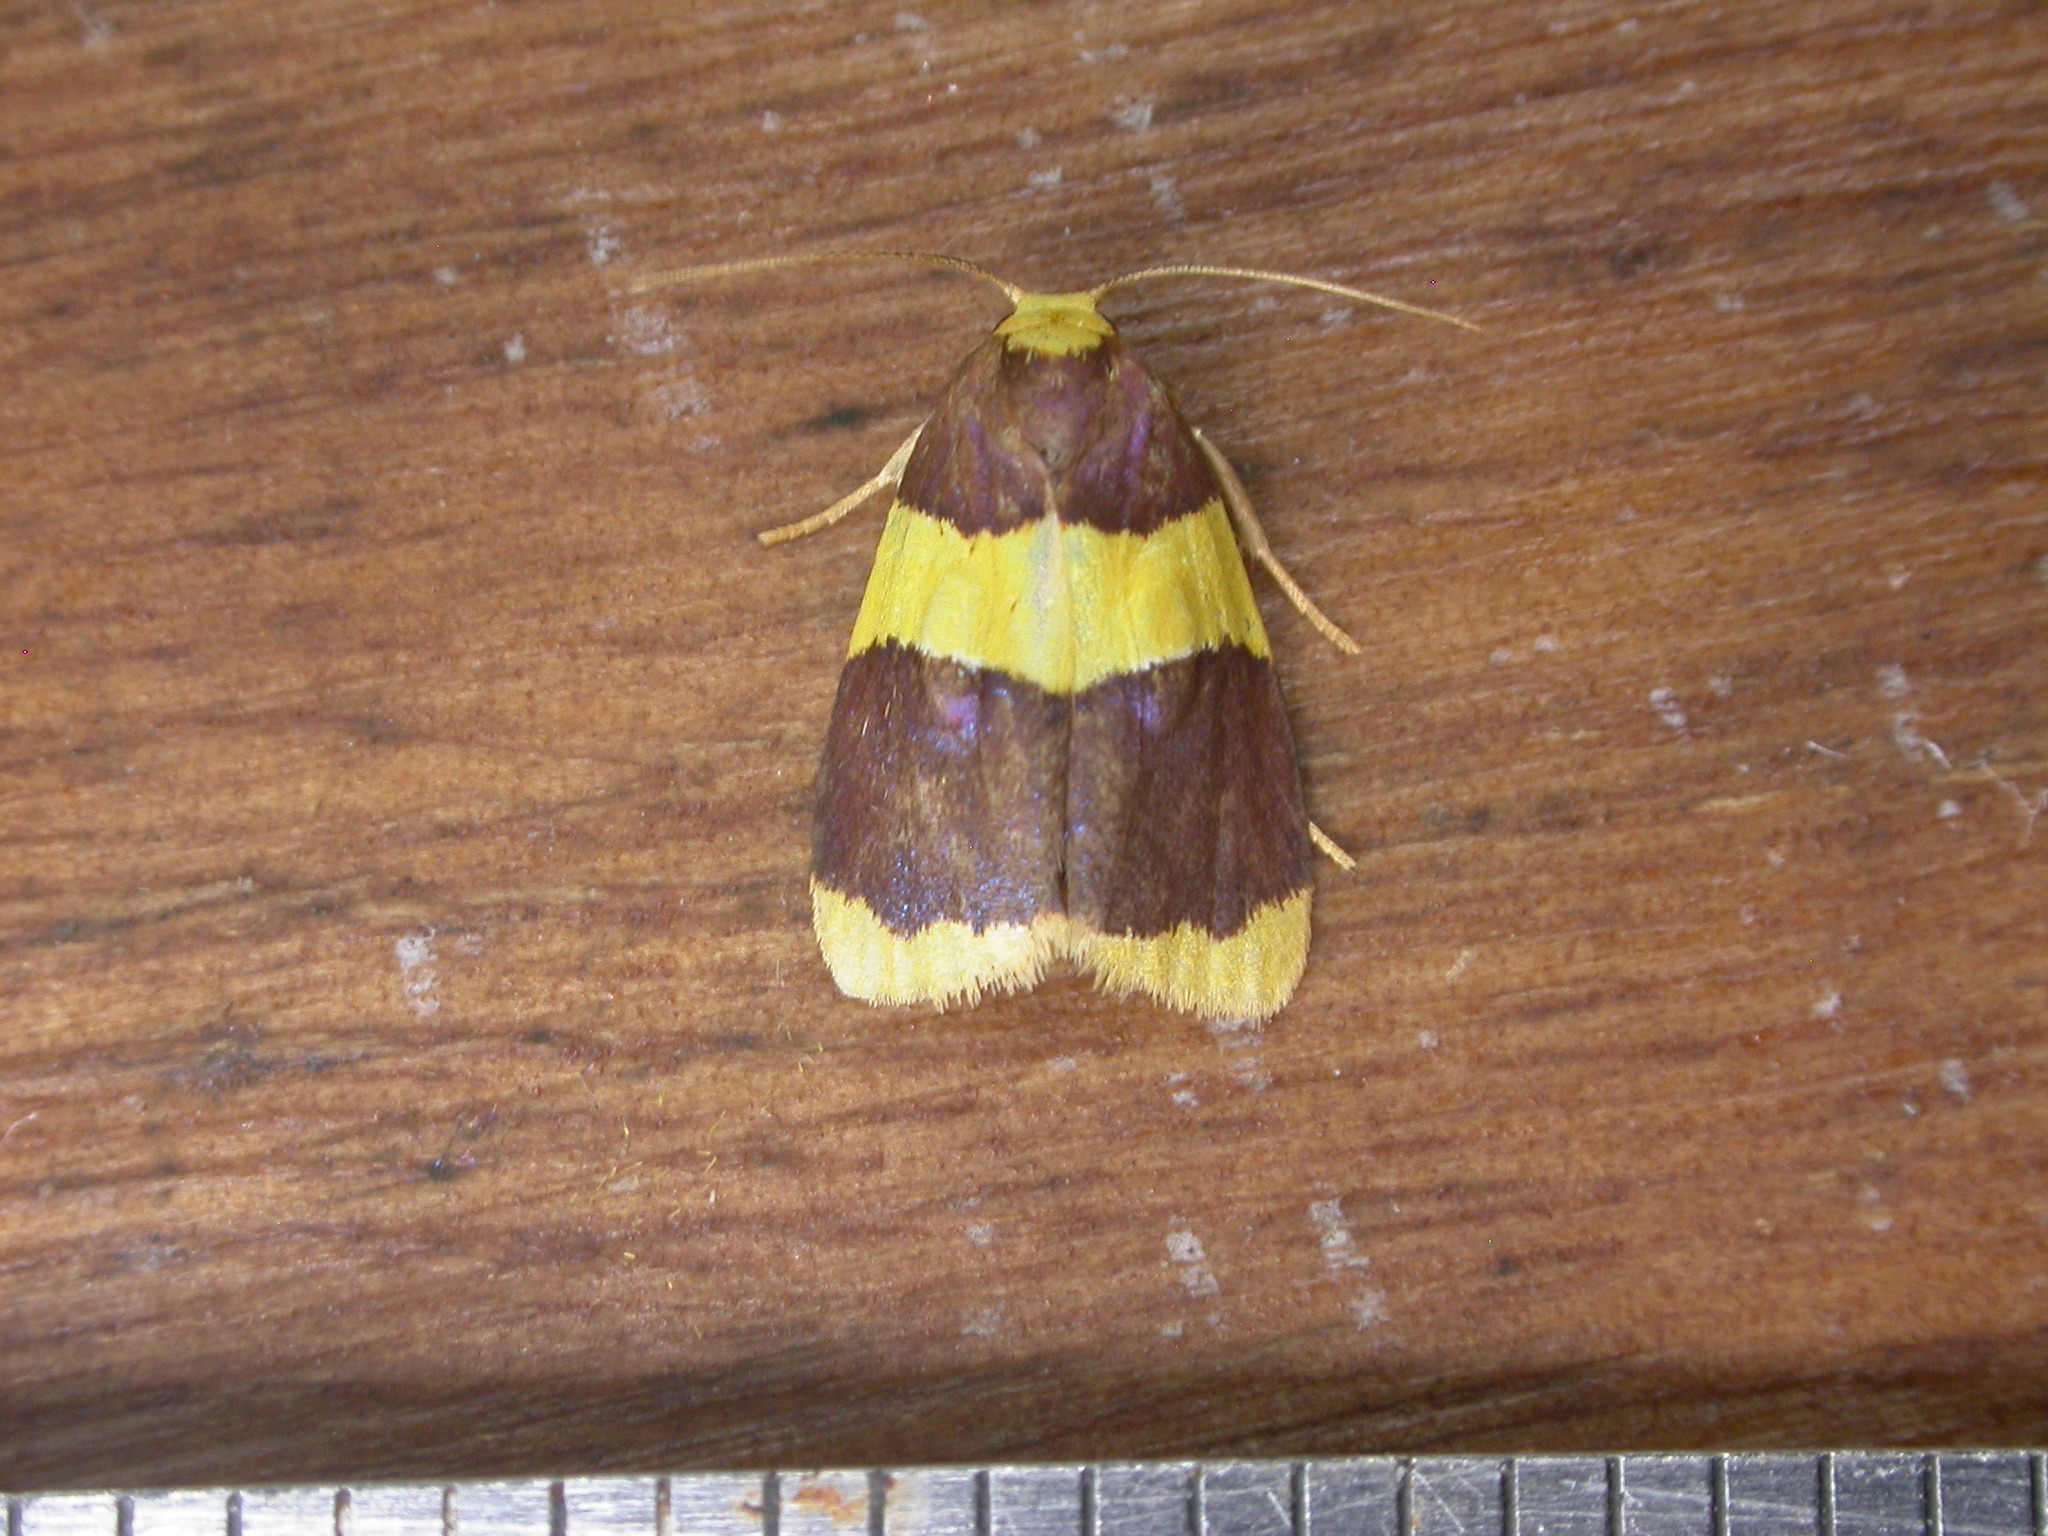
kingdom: Animalia
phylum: Arthropoda
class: Insecta
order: Lepidoptera
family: Erebidae
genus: Heterallactis
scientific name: Heterallactis phlogozona
